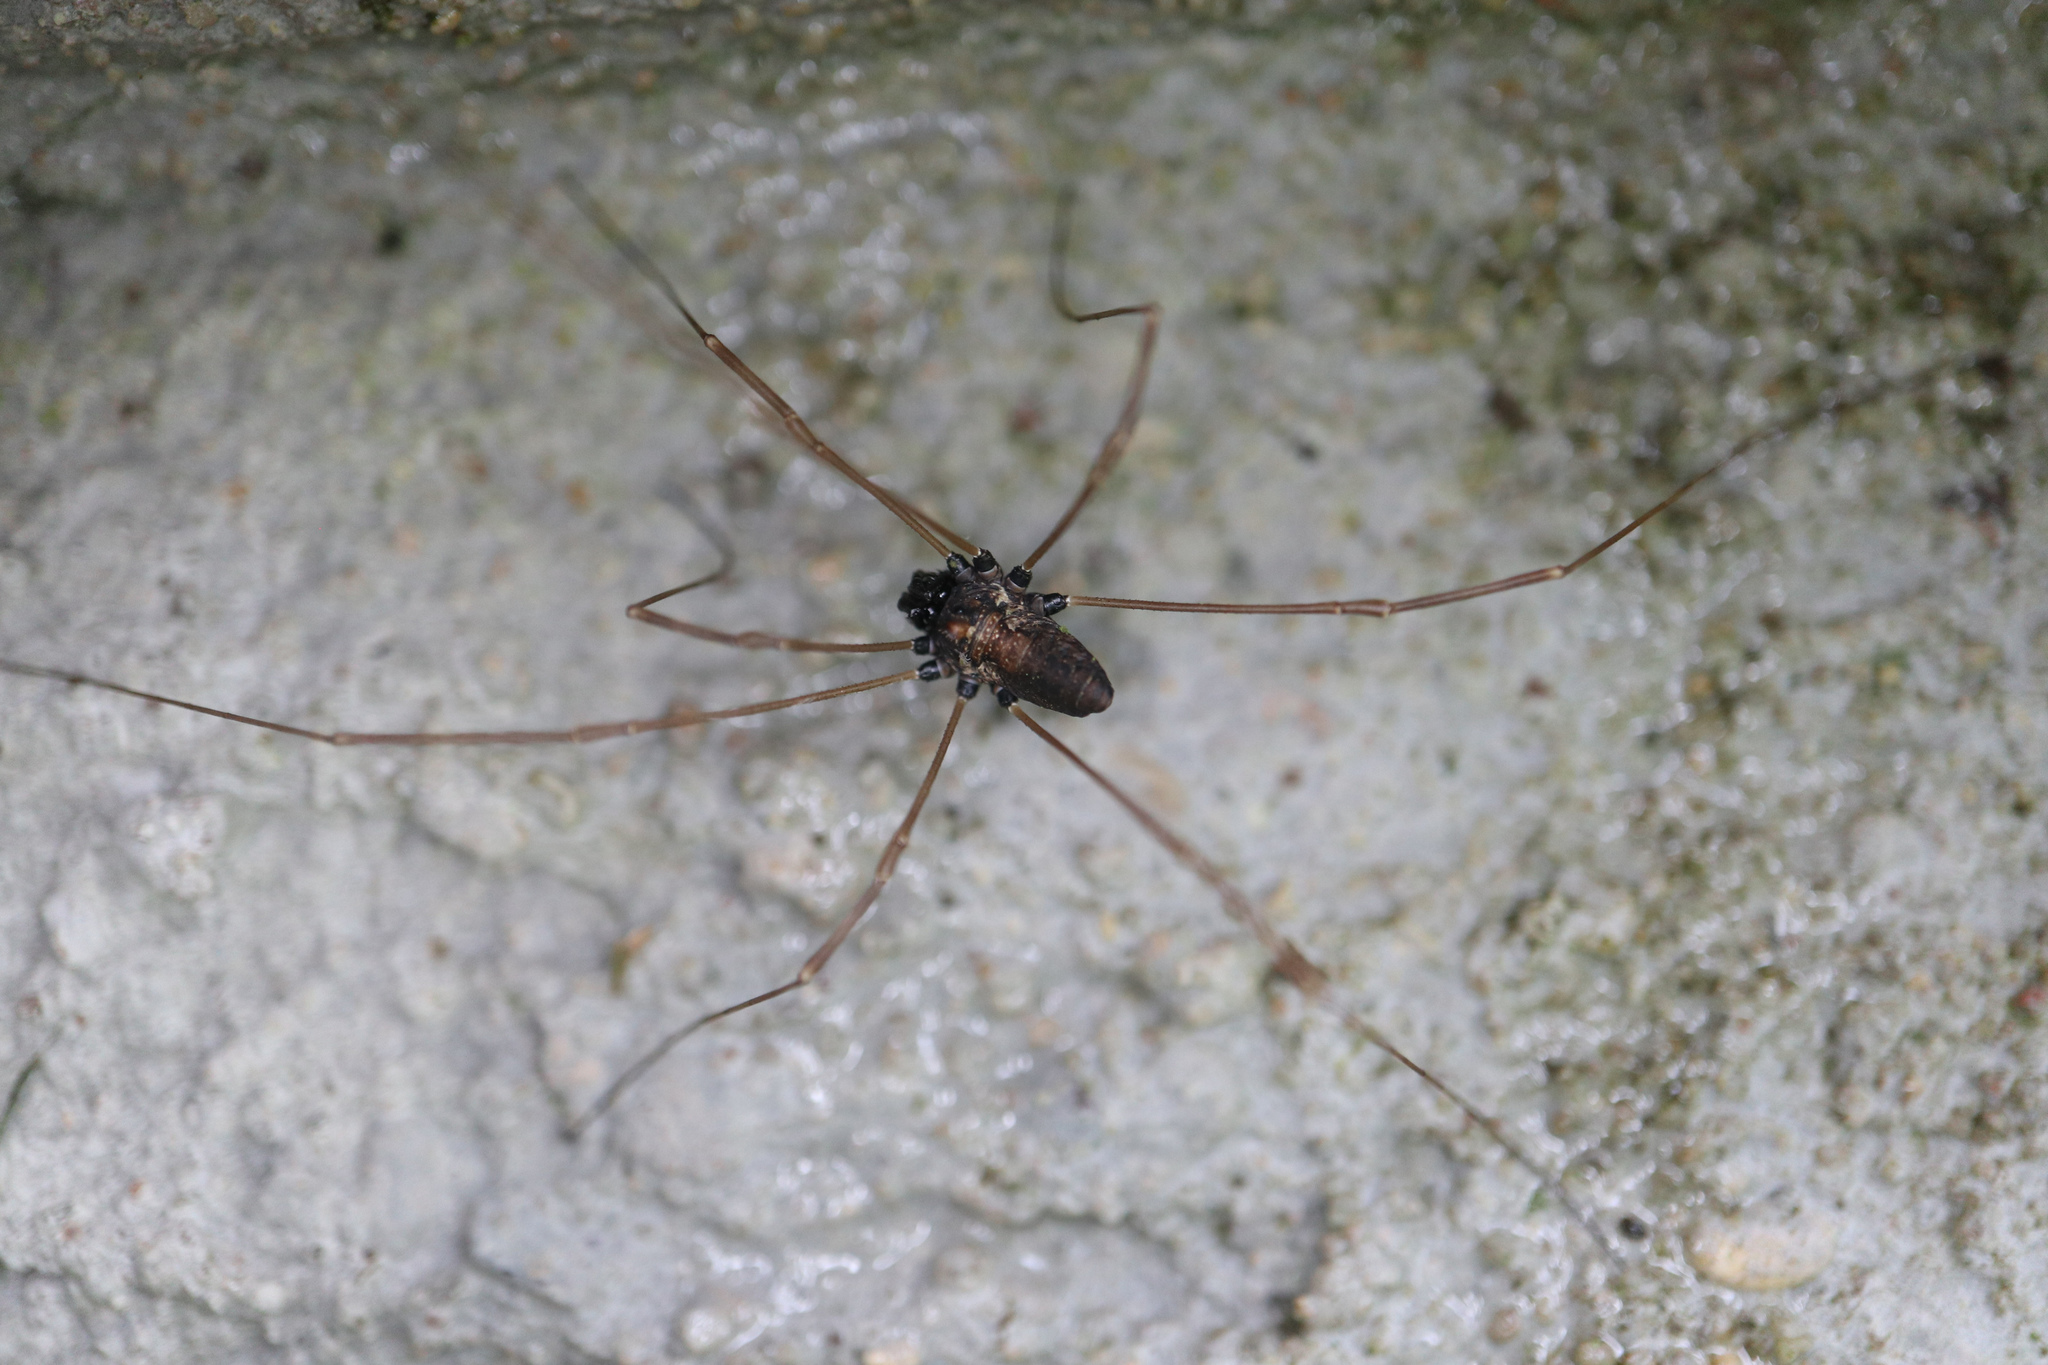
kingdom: Animalia
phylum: Arthropoda
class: Arachnida
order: Opiliones
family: Phalangiidae
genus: Platybunus
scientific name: Platybunus pinetorum
